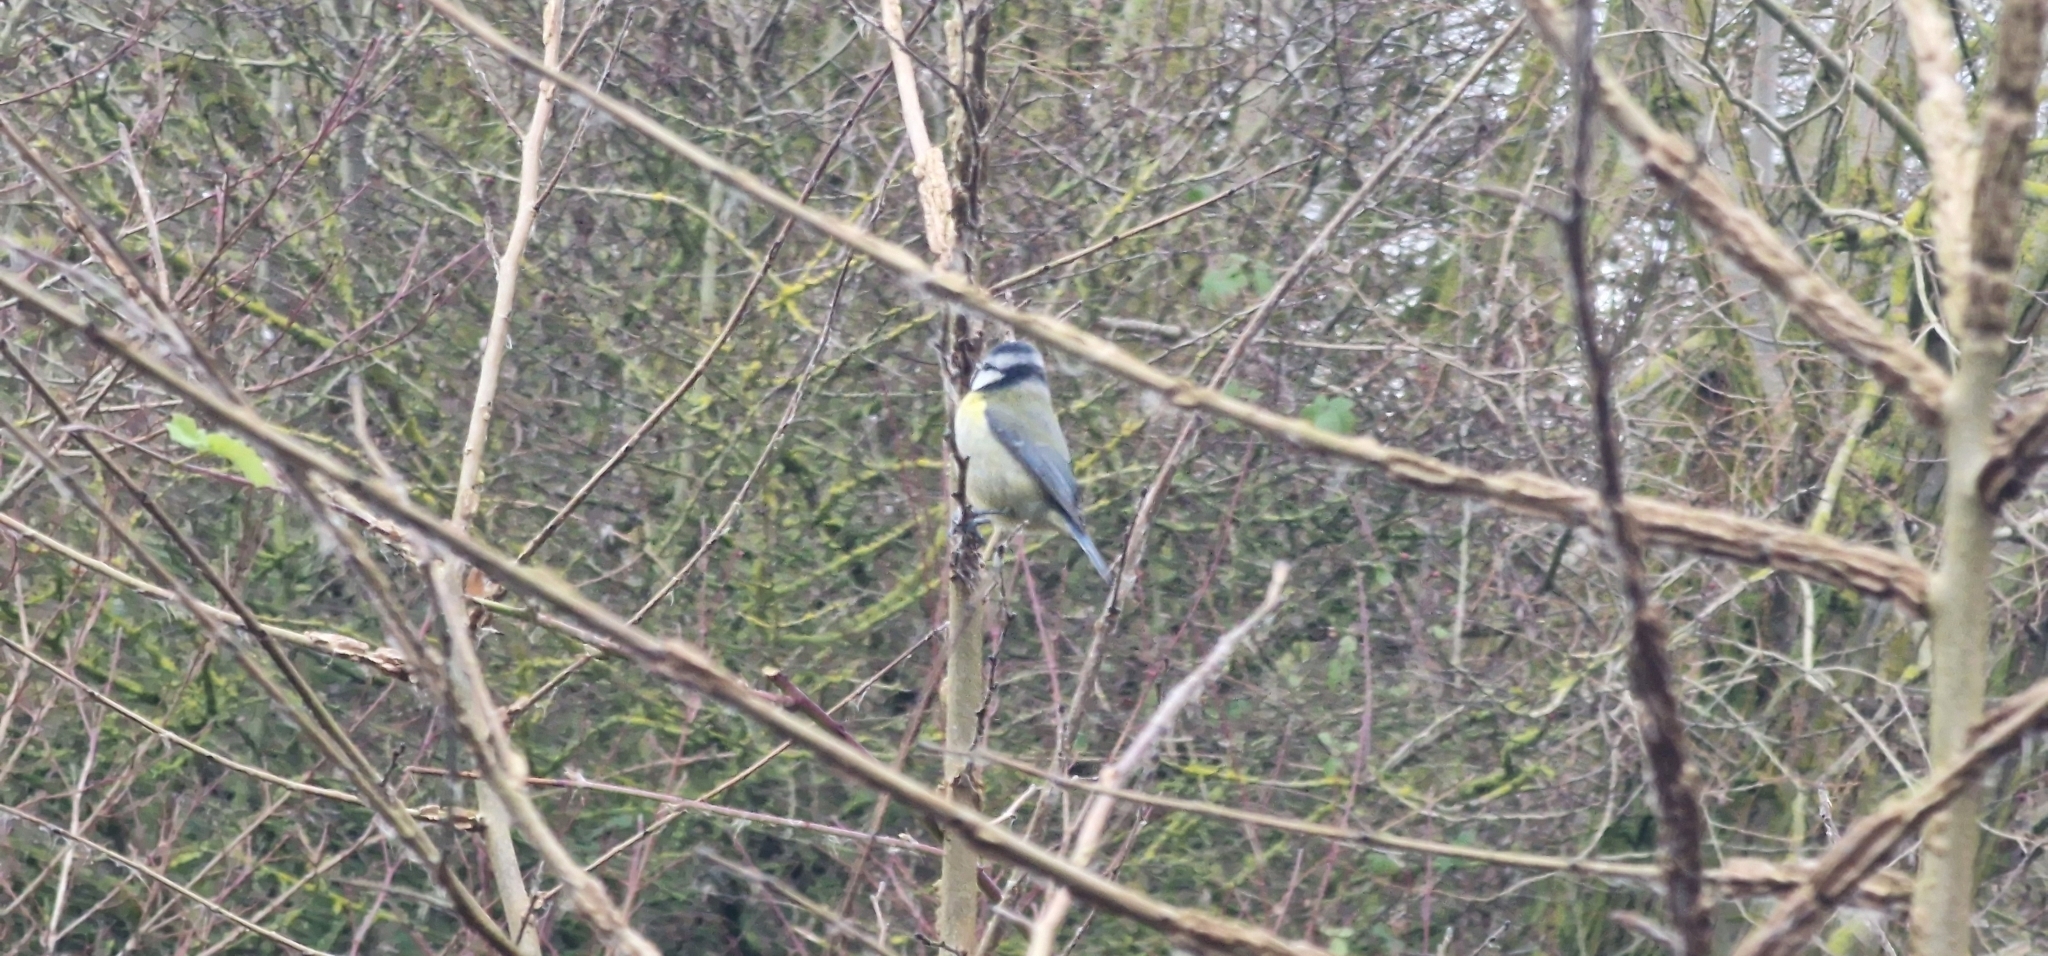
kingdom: Animalia
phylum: Chordata
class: Aves
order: Passeriformes
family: Paridae
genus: Cyanistes
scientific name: Cyanistes caeruleus
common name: Eurasian blue tit
